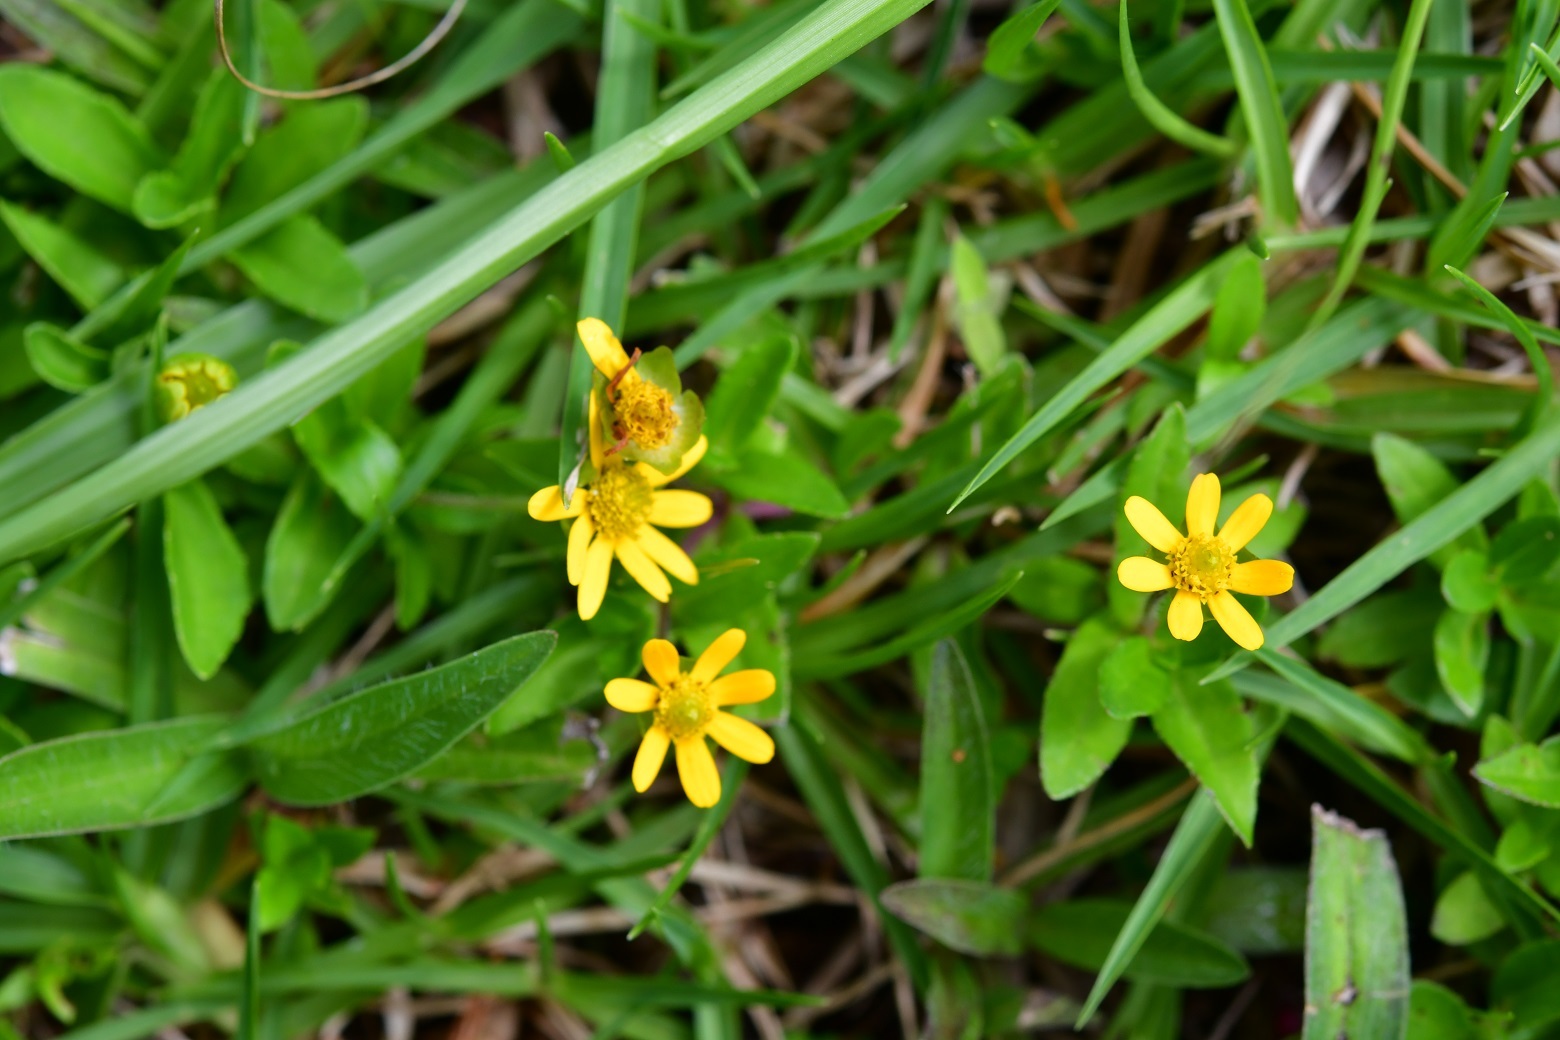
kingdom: Plantae
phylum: Tracheophyta
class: Magnoliopsida
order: Asterales
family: Asteraceae
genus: Melampodium
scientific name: Melampodium montanum
